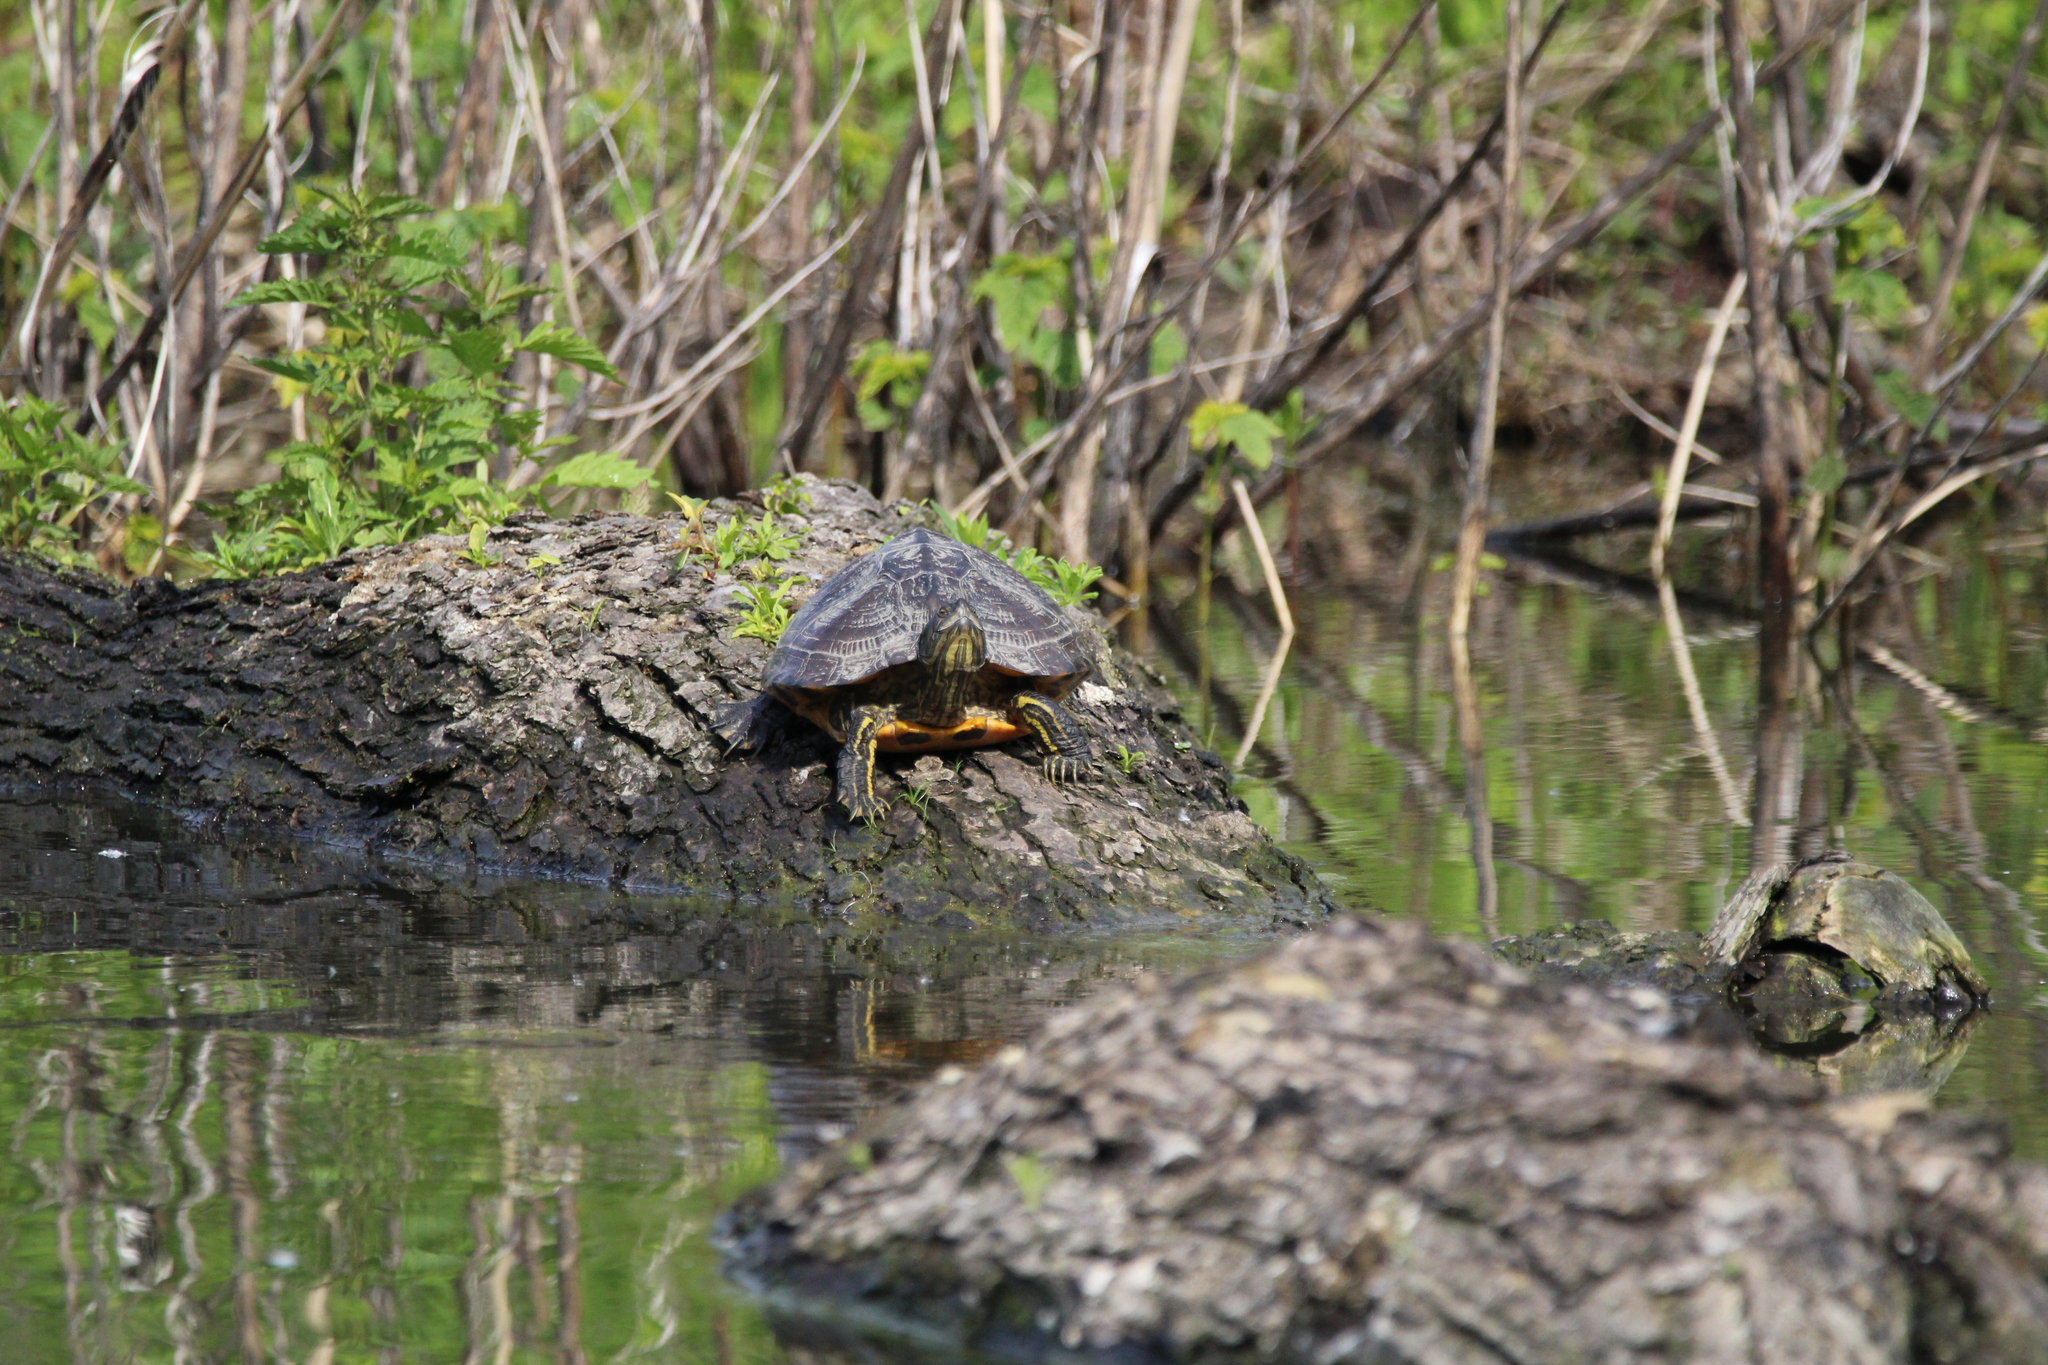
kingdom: Animalia
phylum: Chordata
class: Testudines
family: Emydidae
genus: Trachemys
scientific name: Trachemys scripta
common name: Slider
